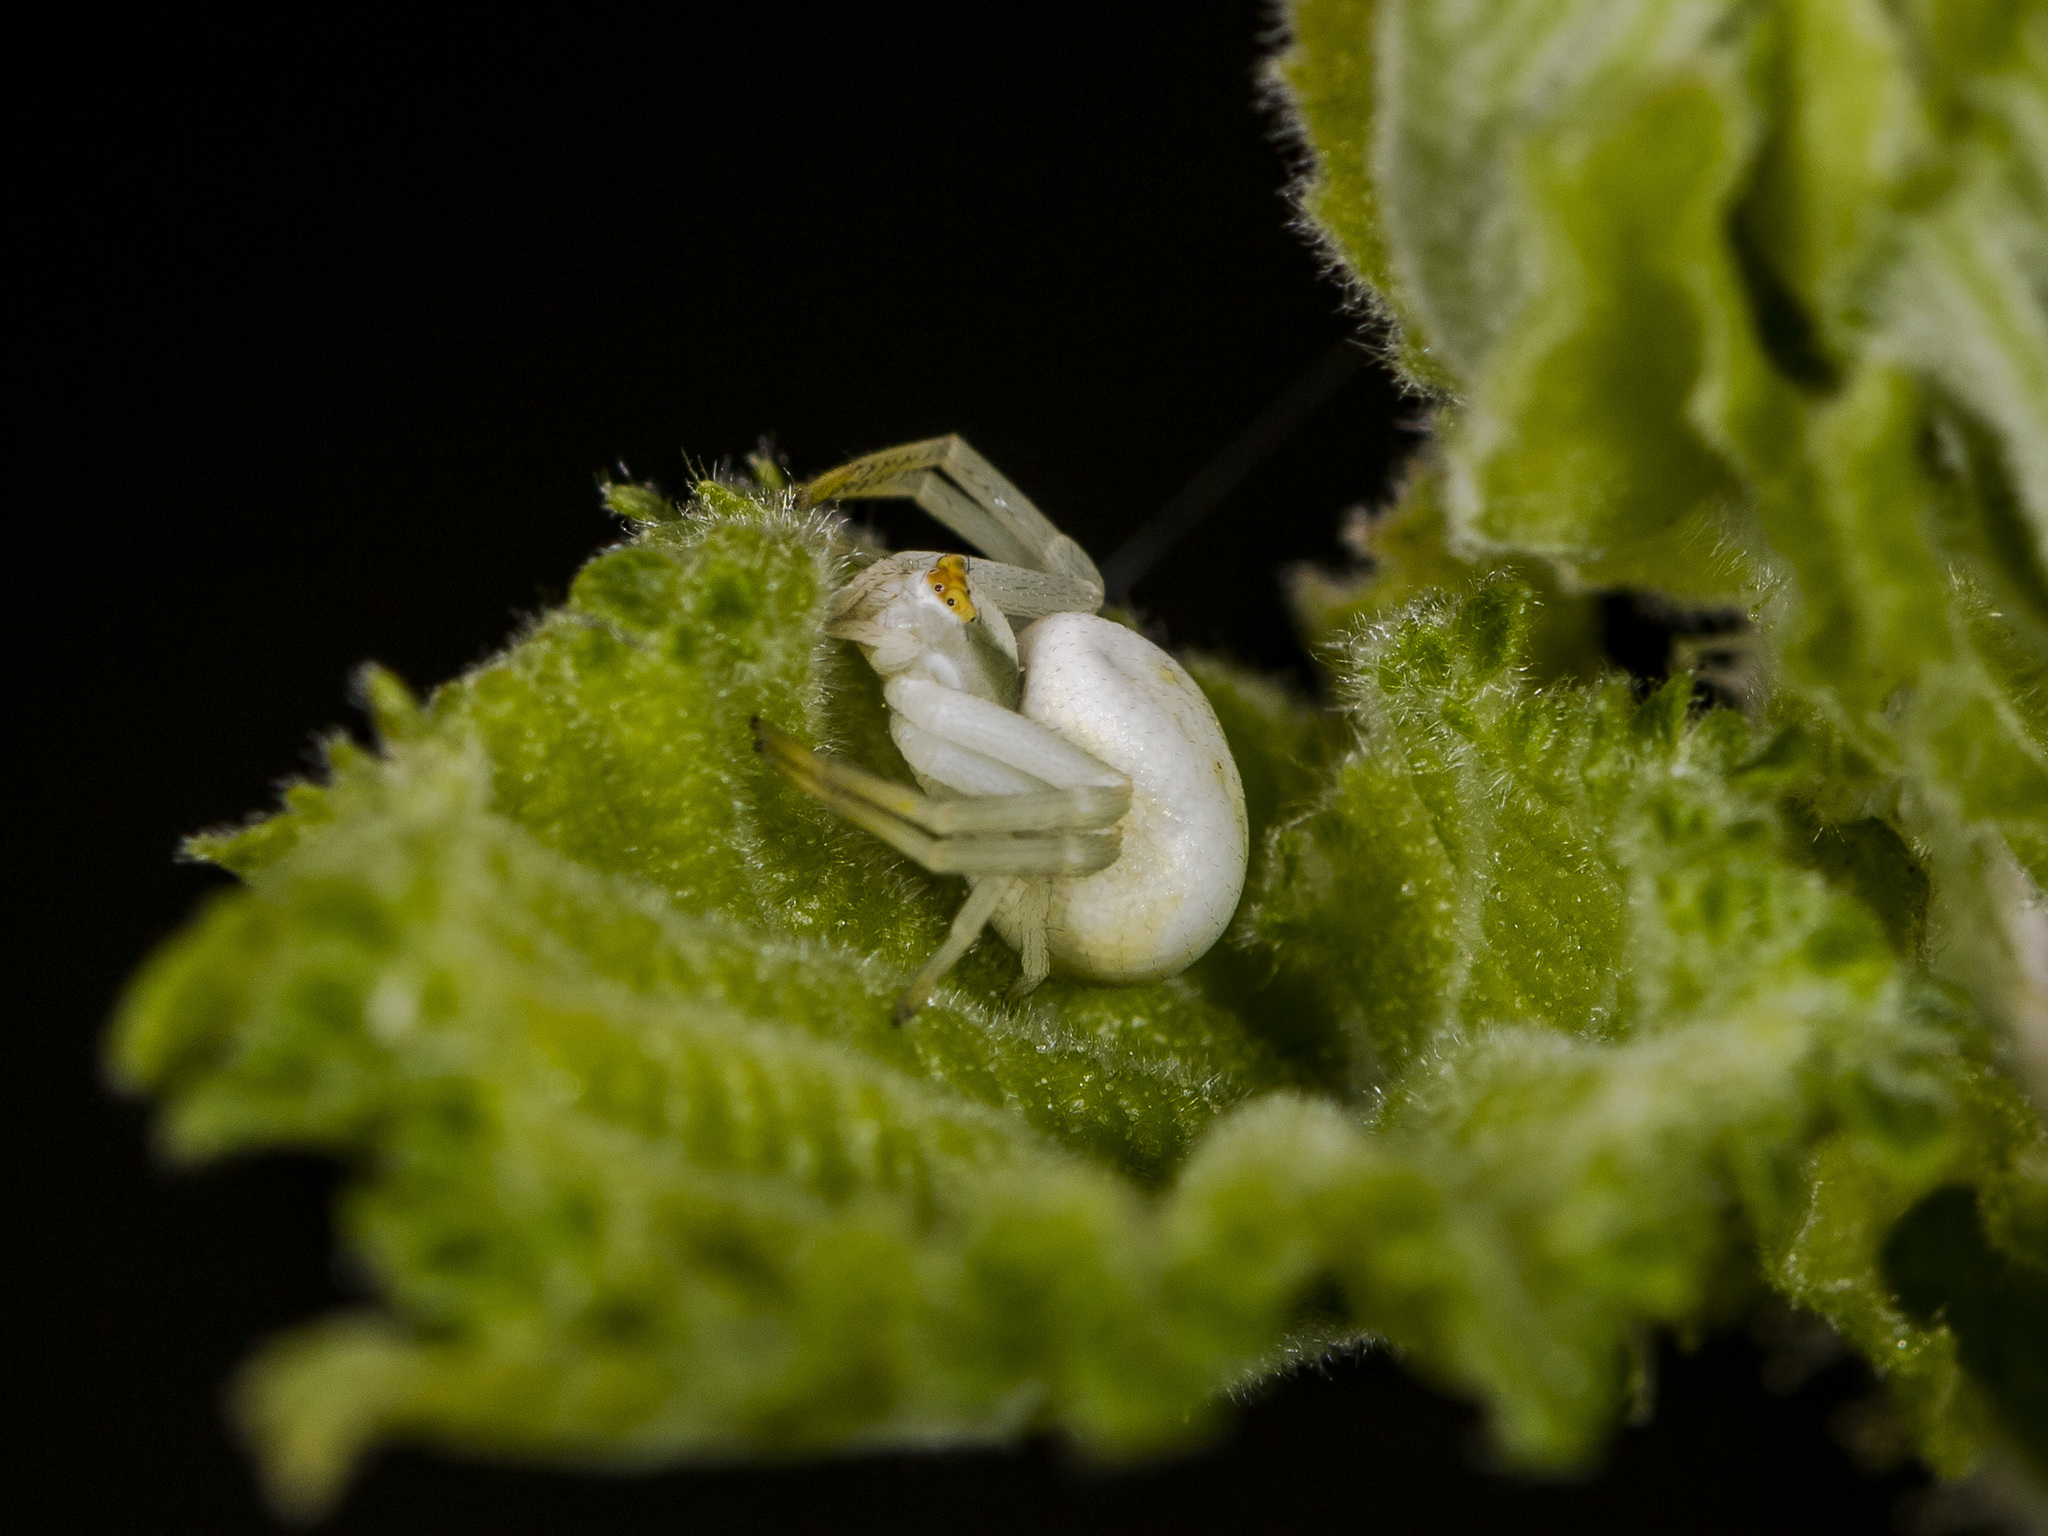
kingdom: Animalia
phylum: Arthropoda
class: Arachnida
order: Araneae
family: Thomisidae
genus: Misumena
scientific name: Misumena vatia
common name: Goldenrod crab spider
